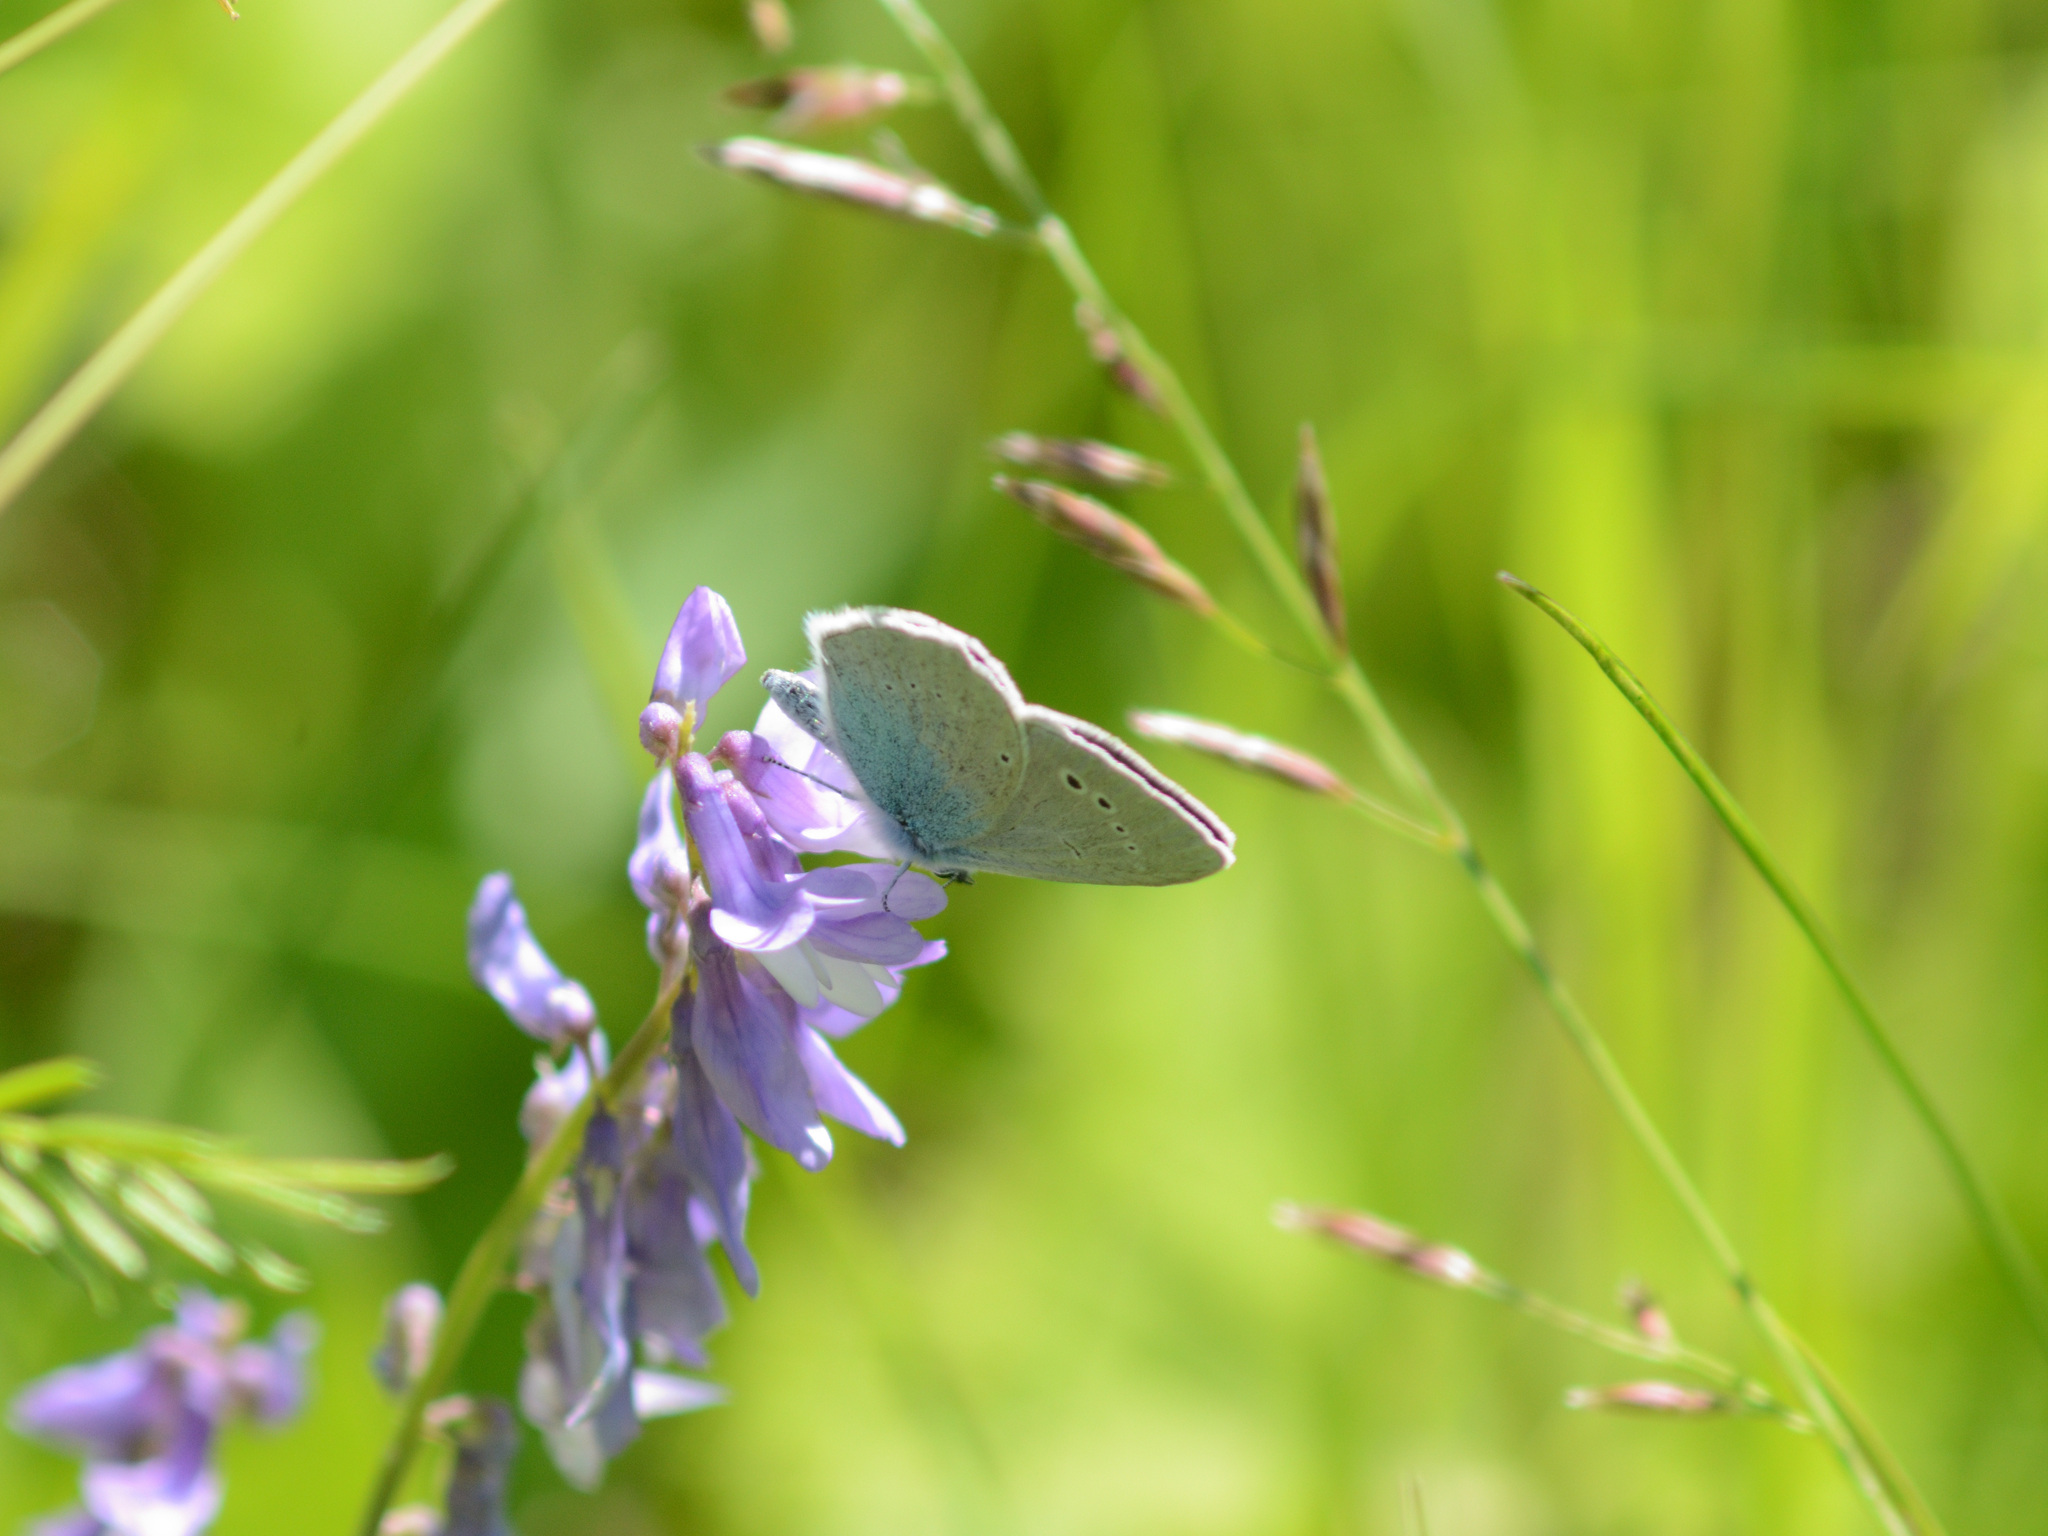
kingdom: Animalia
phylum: Arthropoda
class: Insecta
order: Lepidoptera
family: Lycaenidae
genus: Glaucopsyche
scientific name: Glaucopsyche alexis
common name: Green-underside blue
